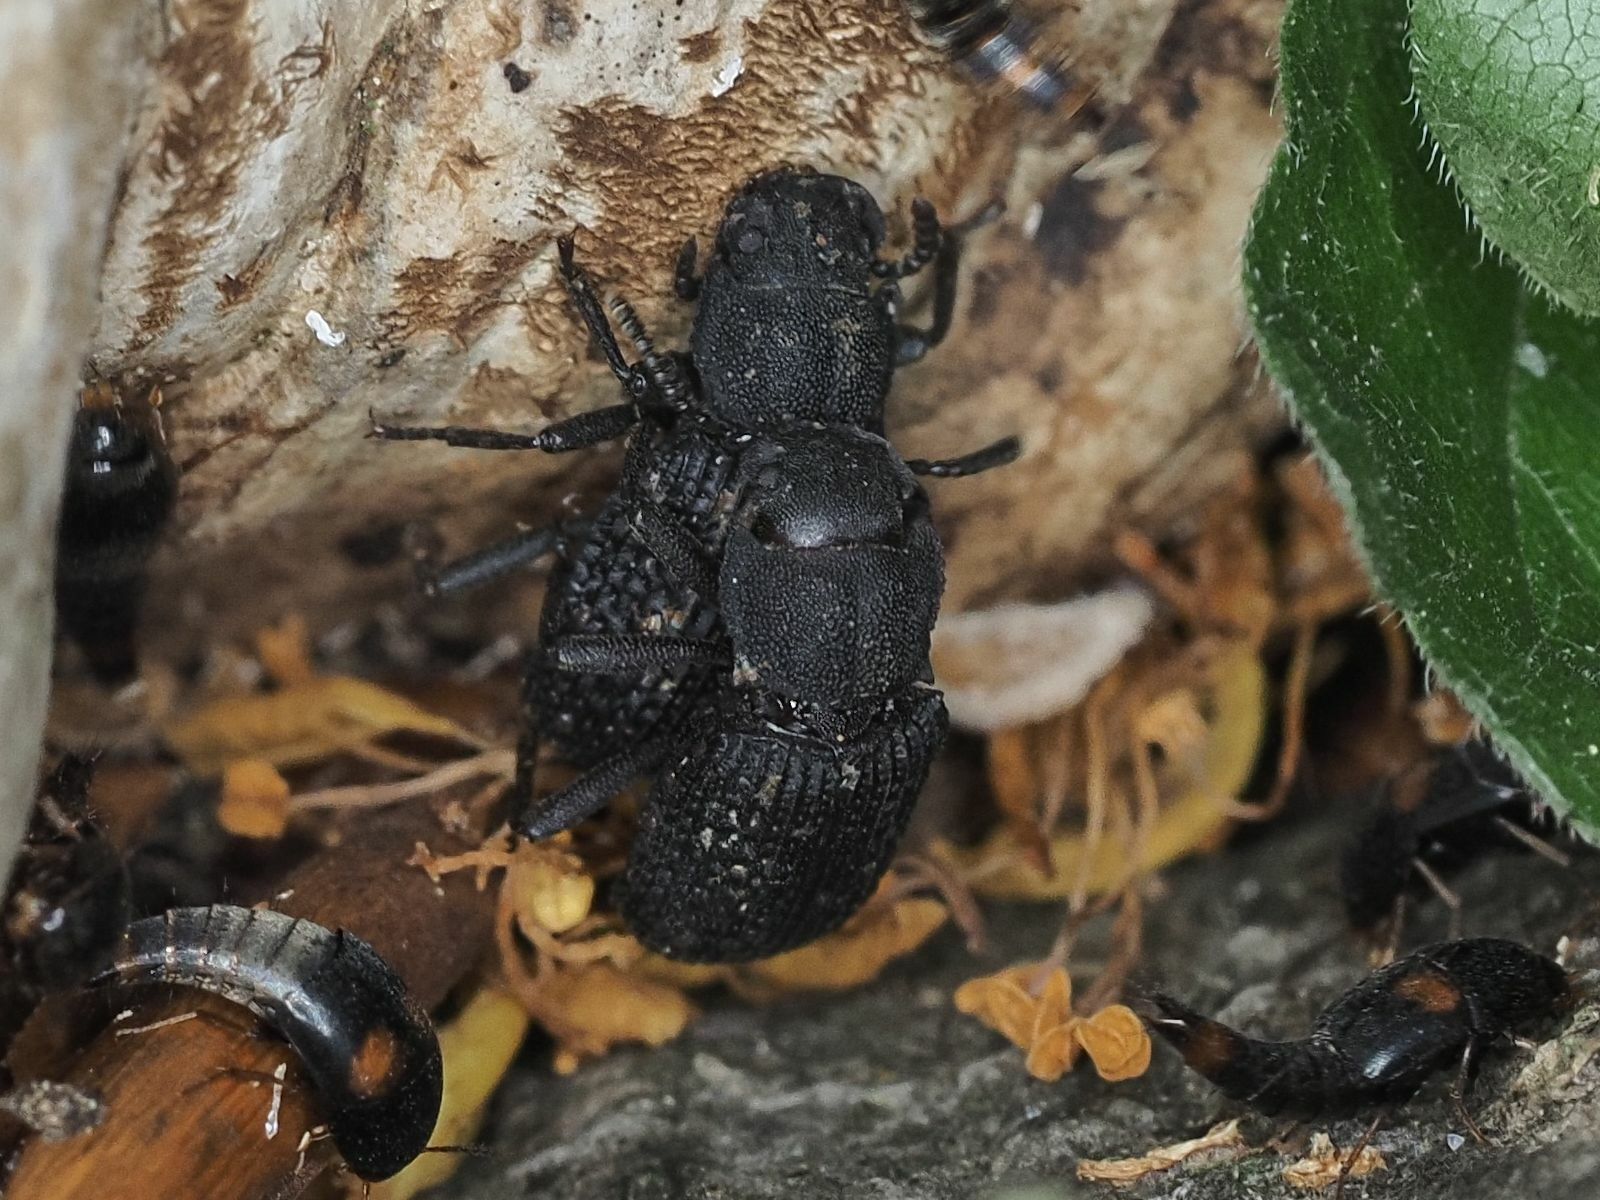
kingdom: Animalia
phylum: Arthropoda
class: Insecta
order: Coleoptera
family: Tenebrionidae
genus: Bolitophagus
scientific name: Bolitophagus reticulatus
